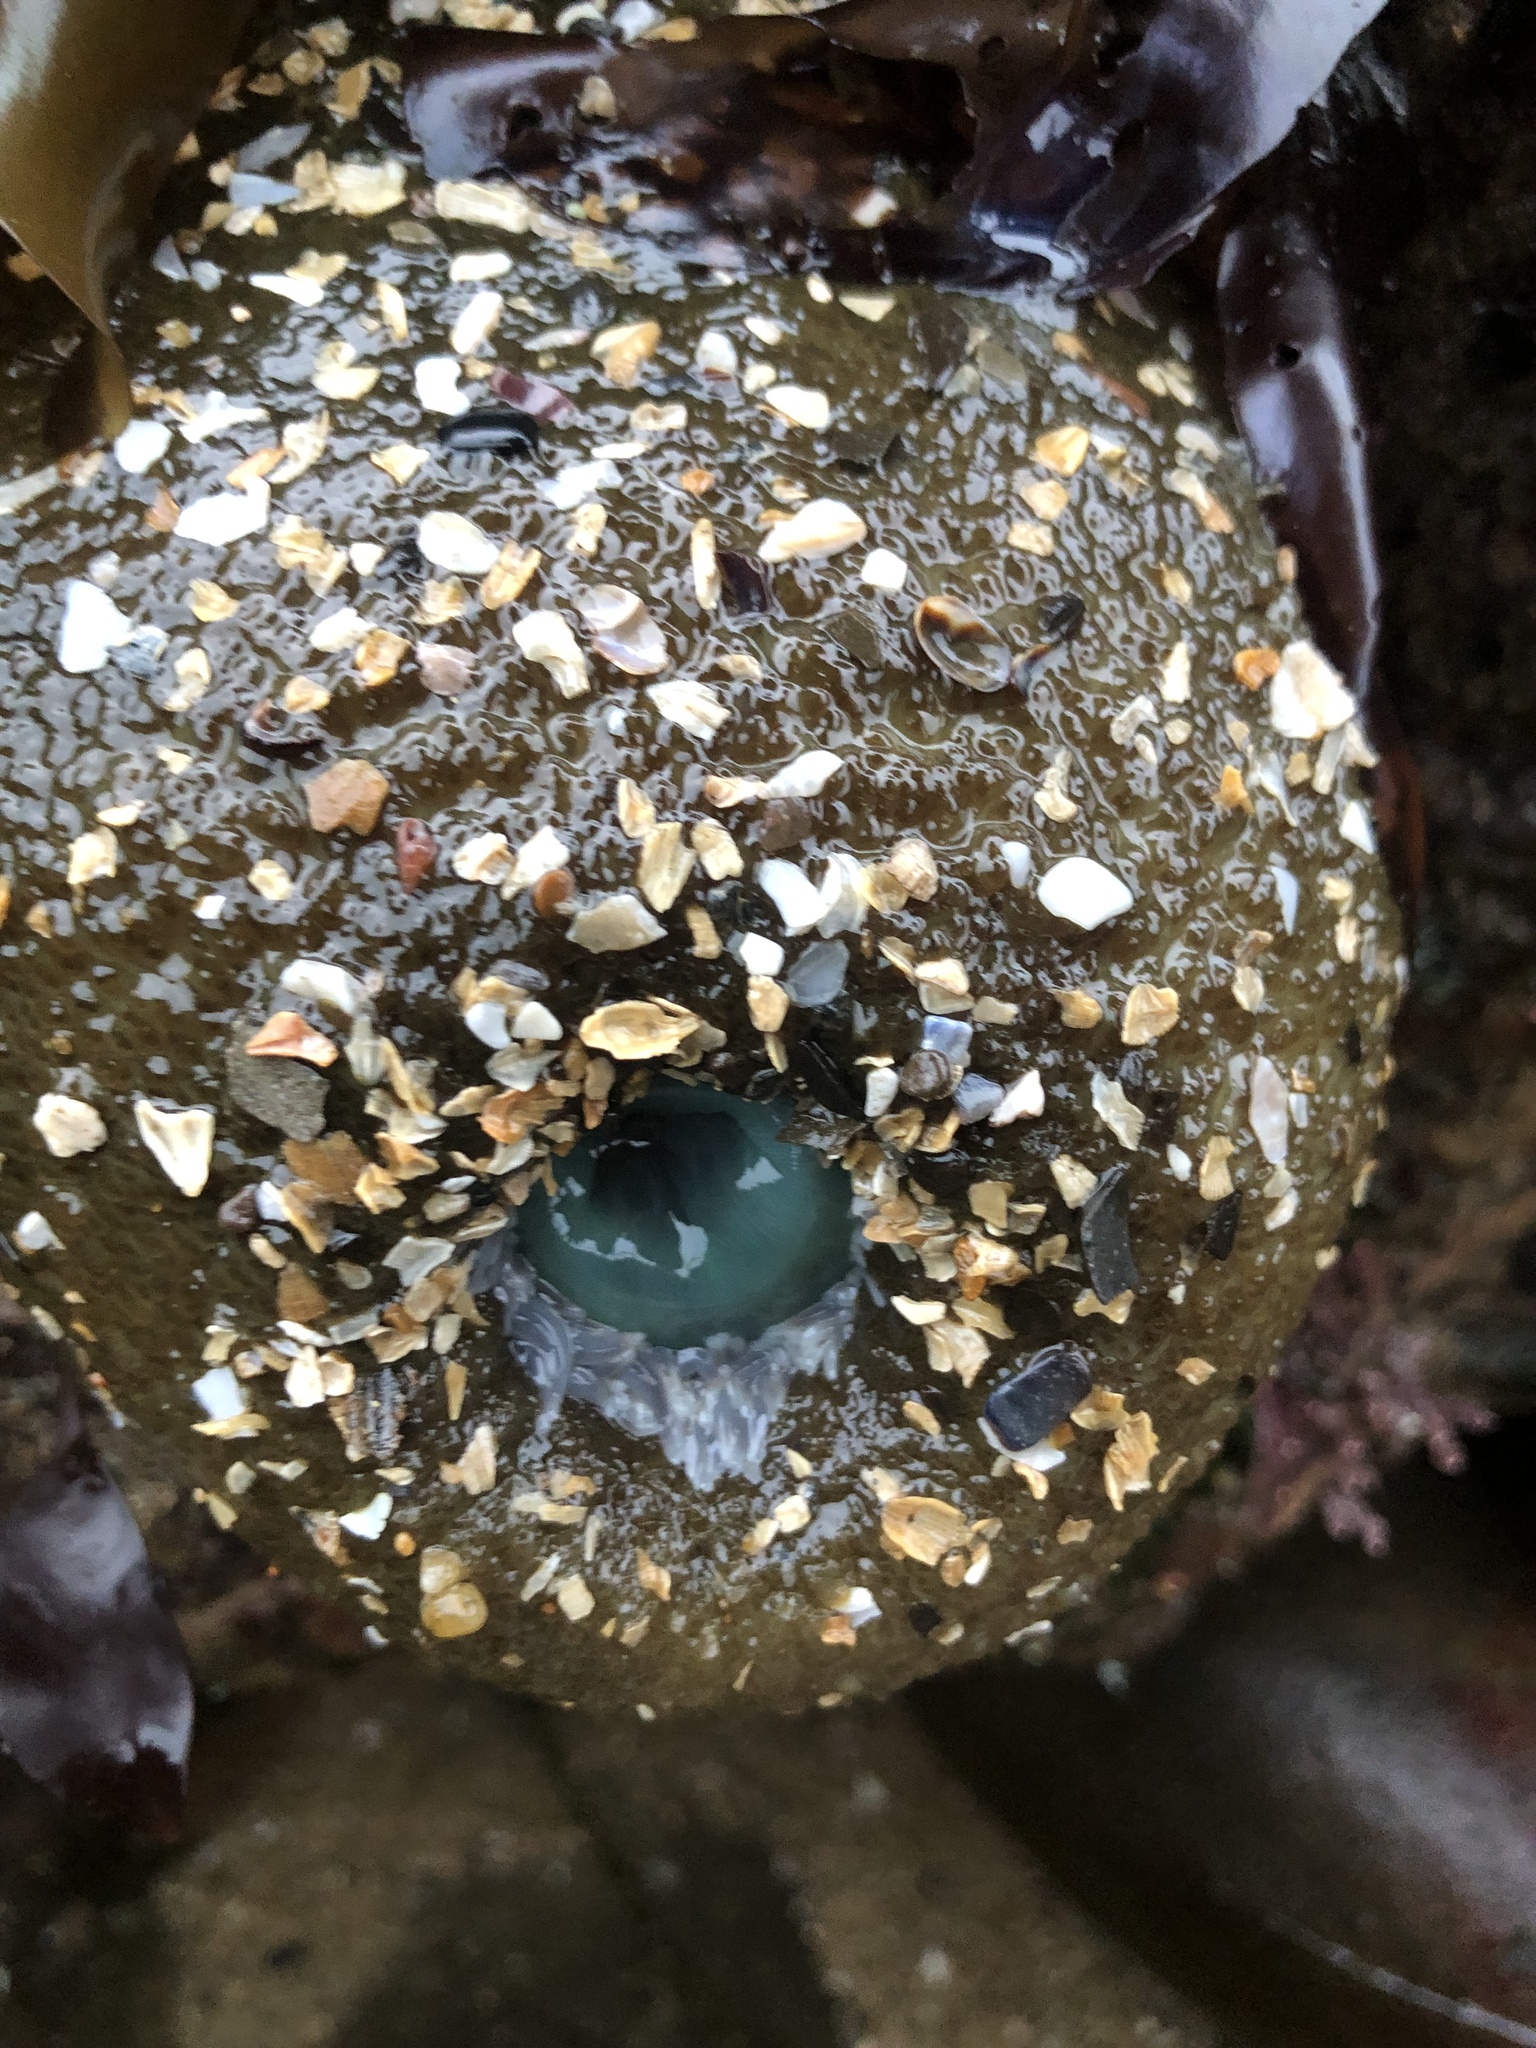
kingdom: Animalia
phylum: Cnidaria
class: Anthozoa
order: Actiniaria
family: Actiniidae
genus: Anthopleura
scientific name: Anthopleura xanthogrammica
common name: Giant green anemone
